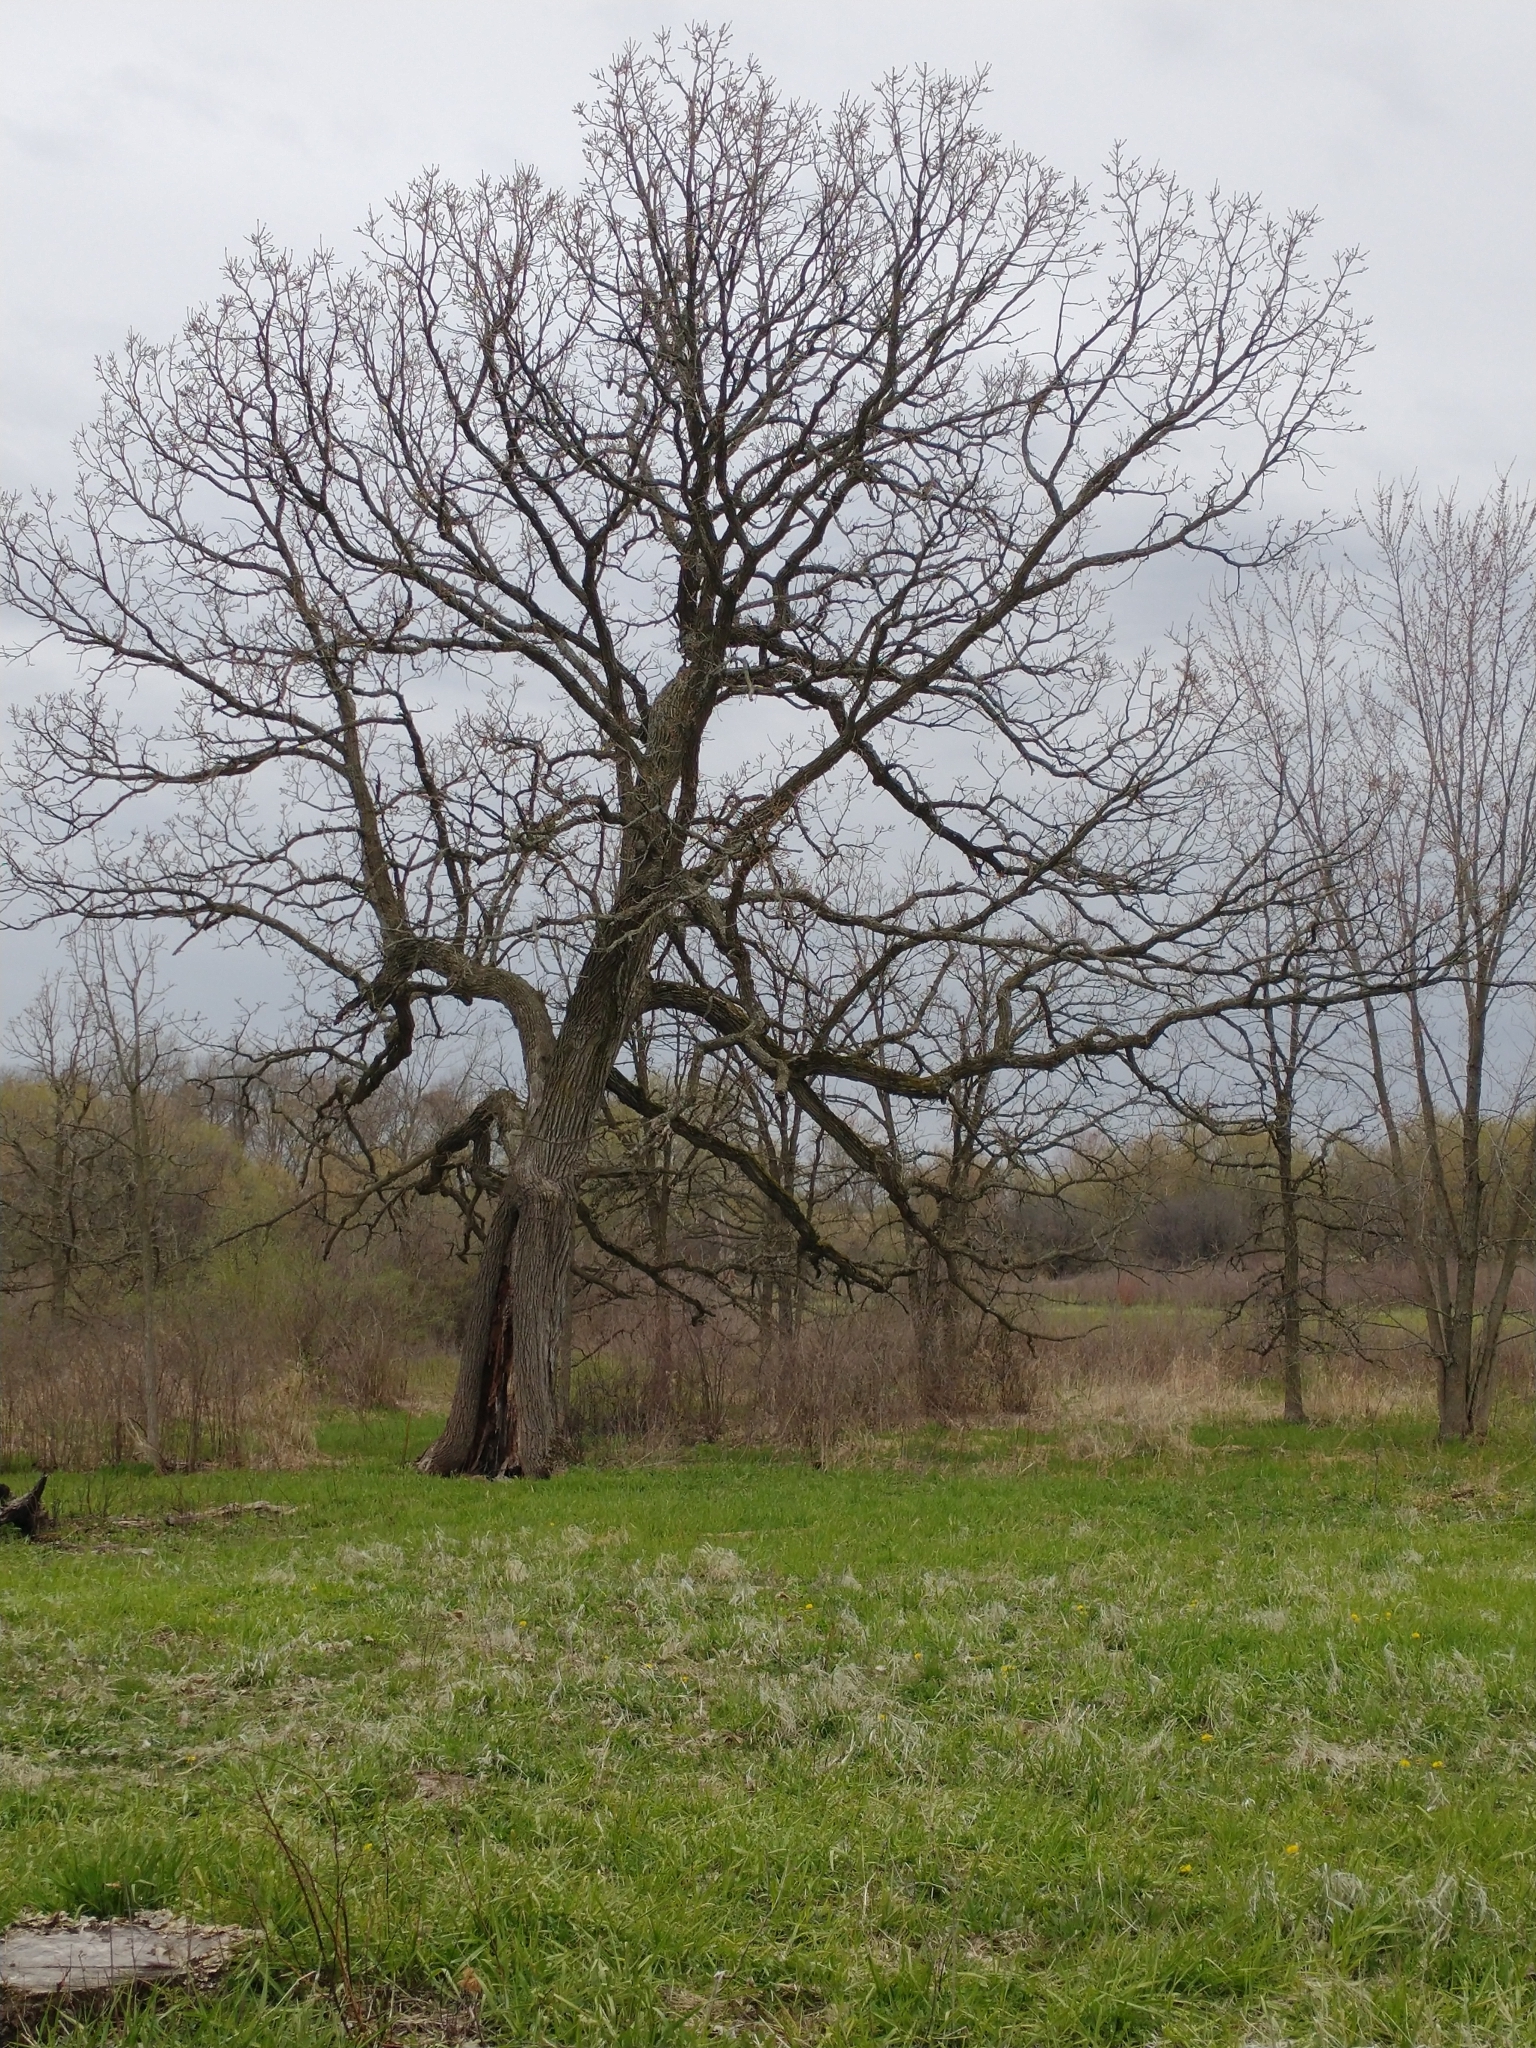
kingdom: Plantae
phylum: Tracheophyta
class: Magnoliopsida
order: Fagales
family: Fagaceae
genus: Quercus
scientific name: Quercus macrocarpa
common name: Bur oak
